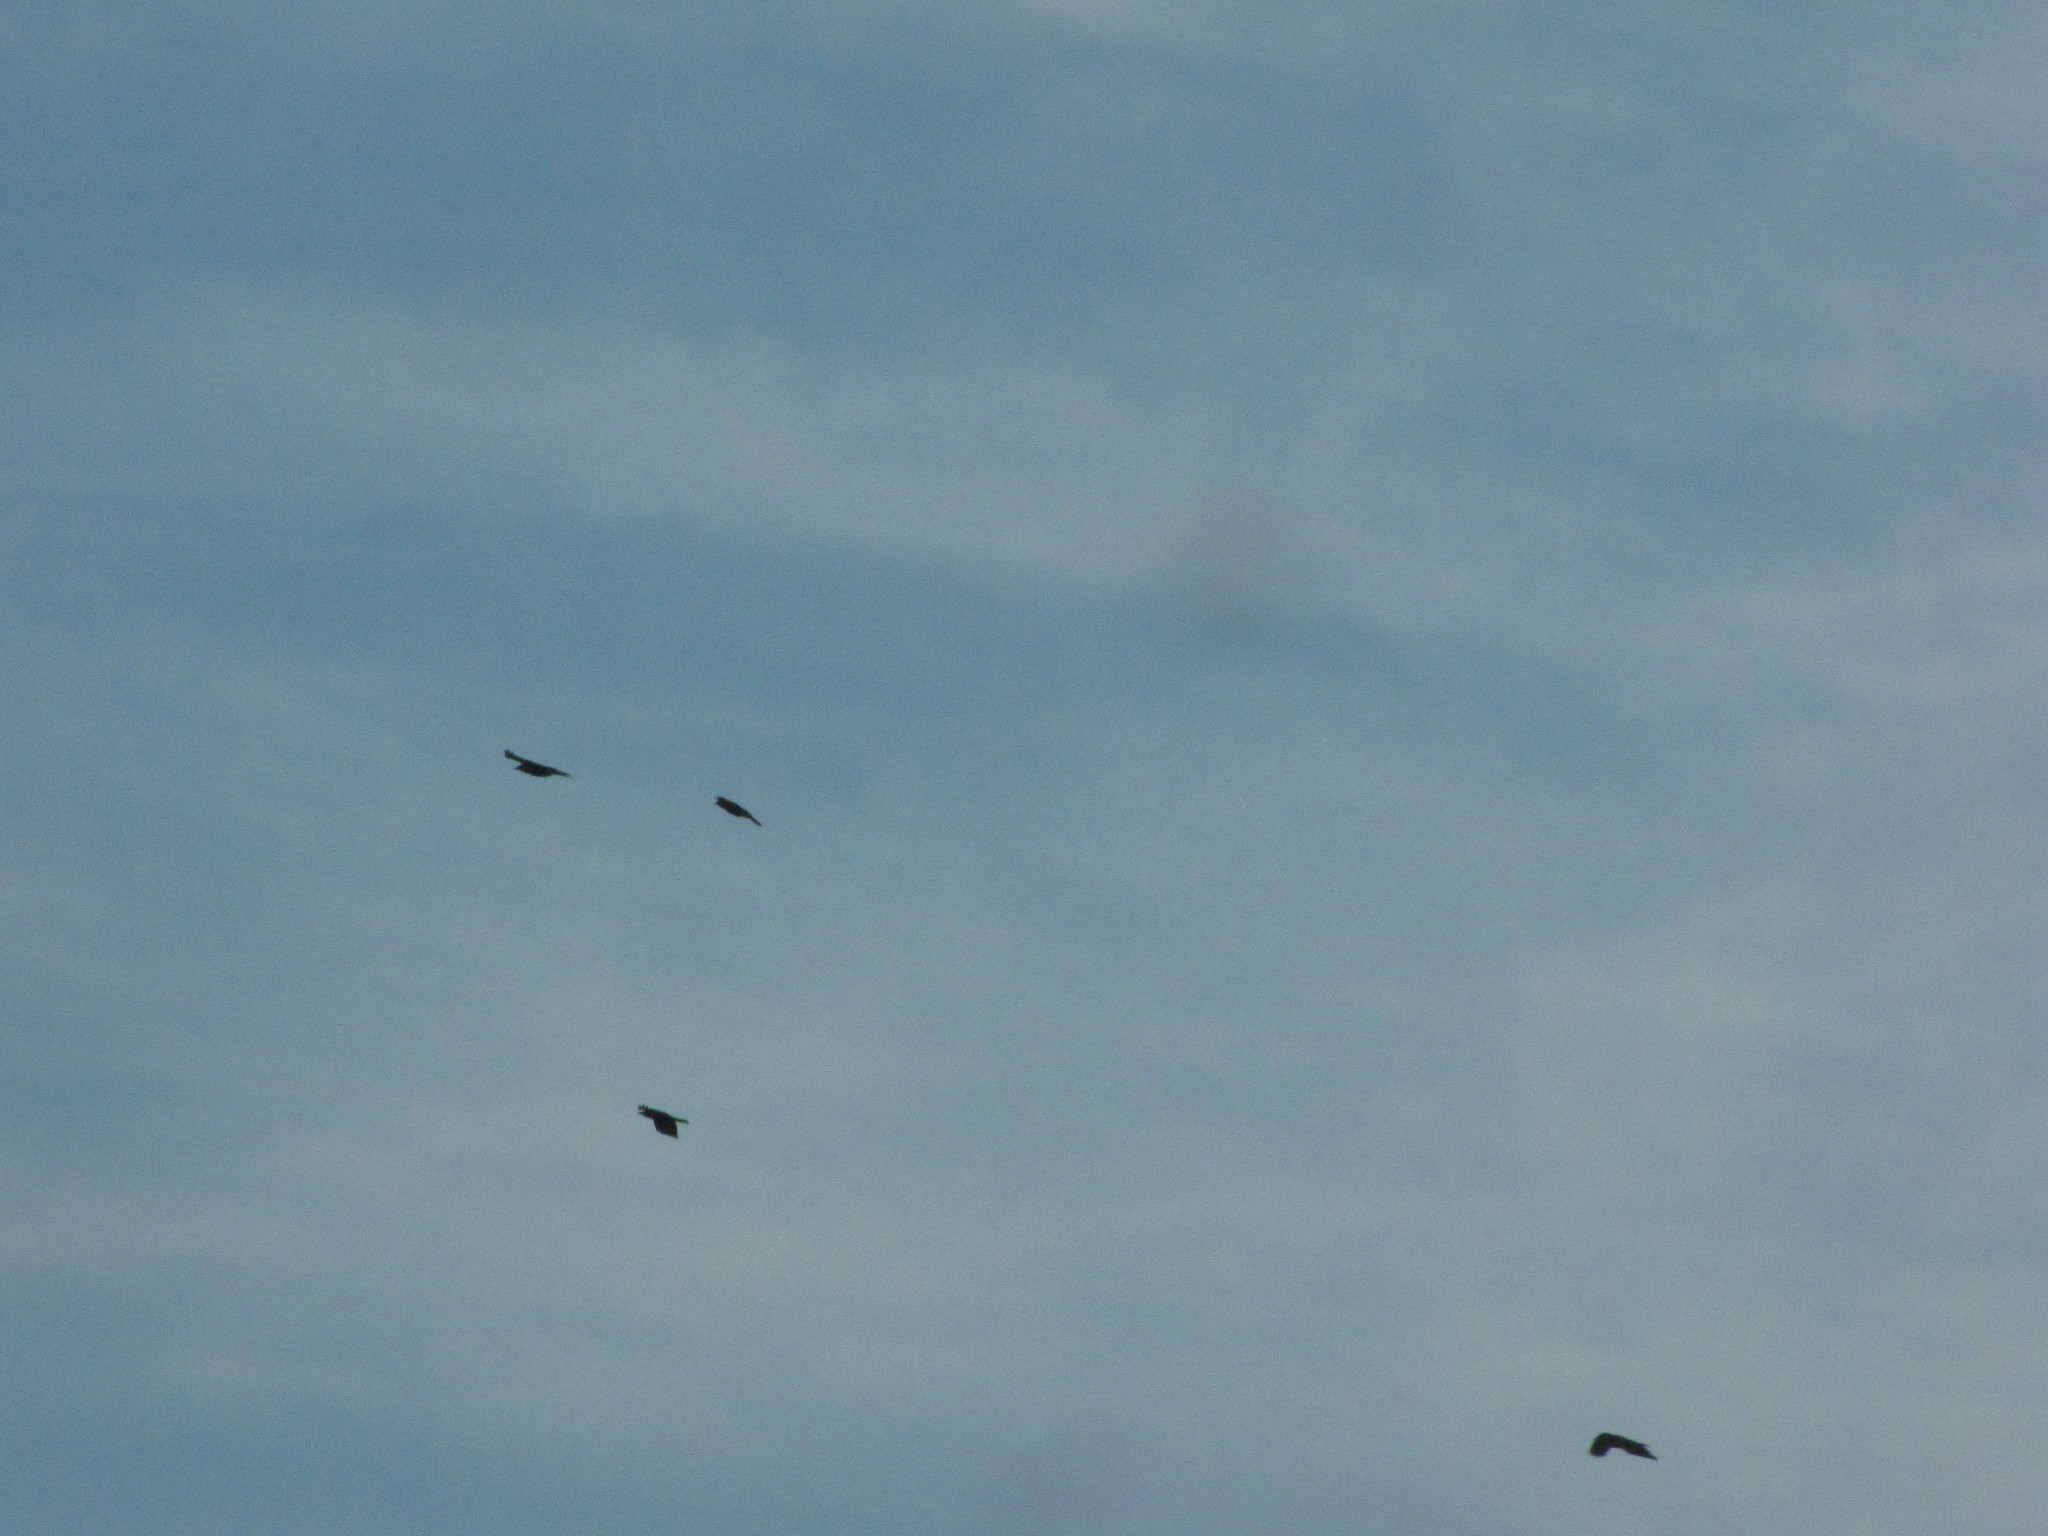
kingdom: Animalia
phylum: Chordata
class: Aves
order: Passeriformes
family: Corvidae
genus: Corvus
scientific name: Corvus brachyrhynchos
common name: American crow
